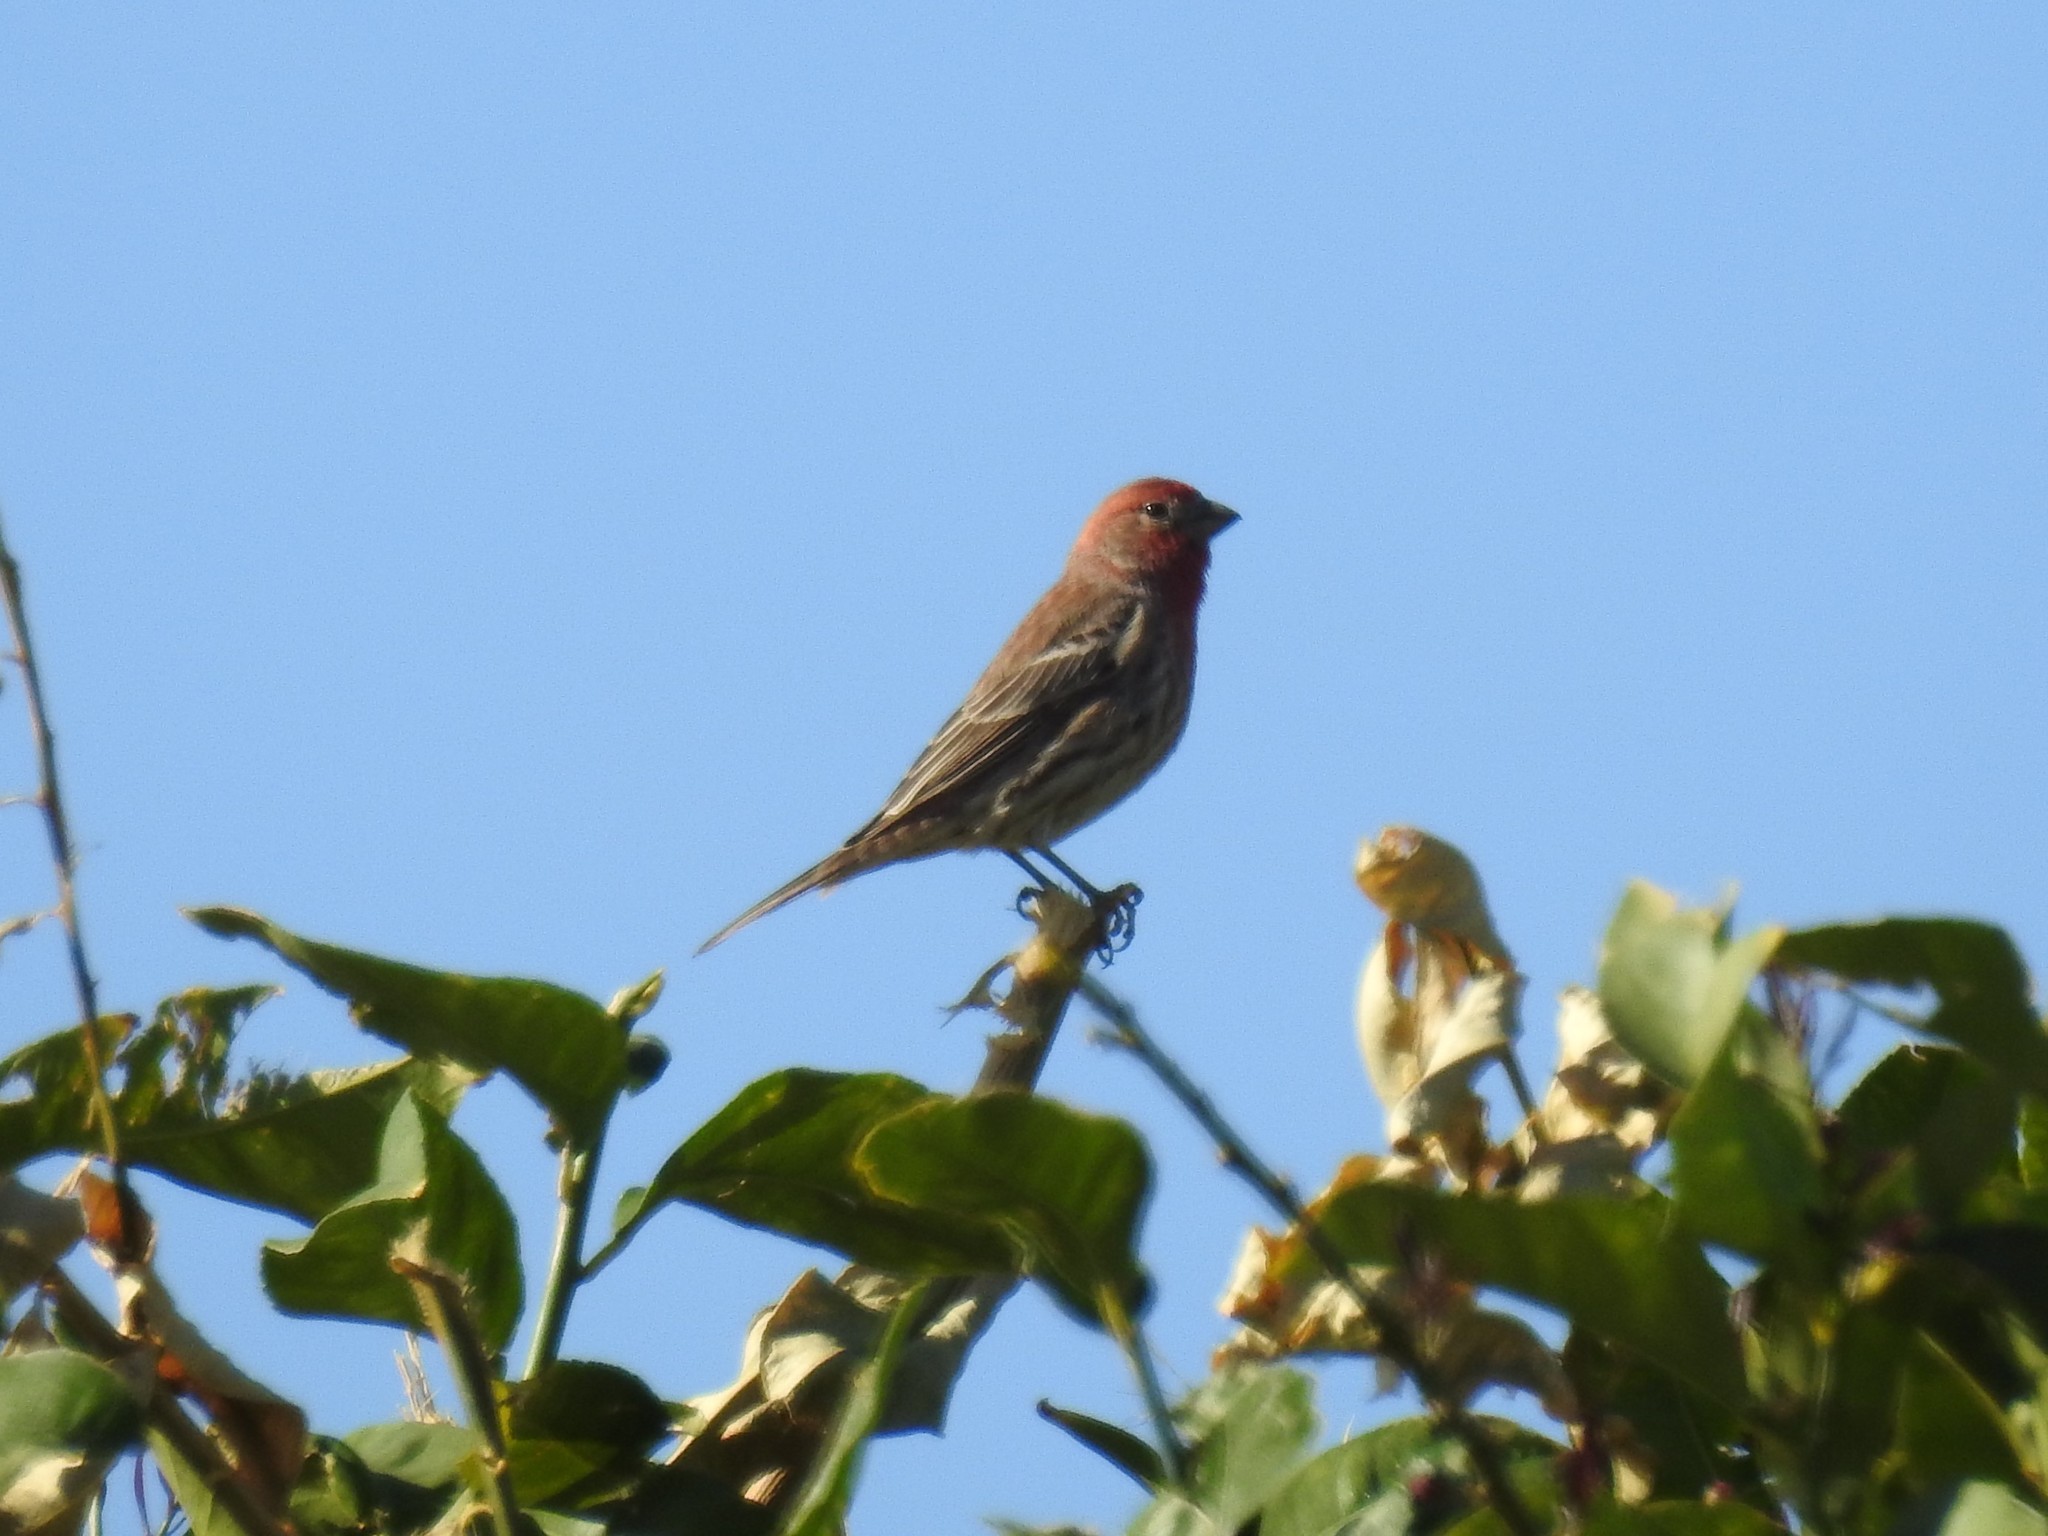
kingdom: Animalia
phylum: Chordata
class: Aves
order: Passeriformes
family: Fringillidae
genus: Haemorhous
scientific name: Haemorhous mexicanus
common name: House finch
